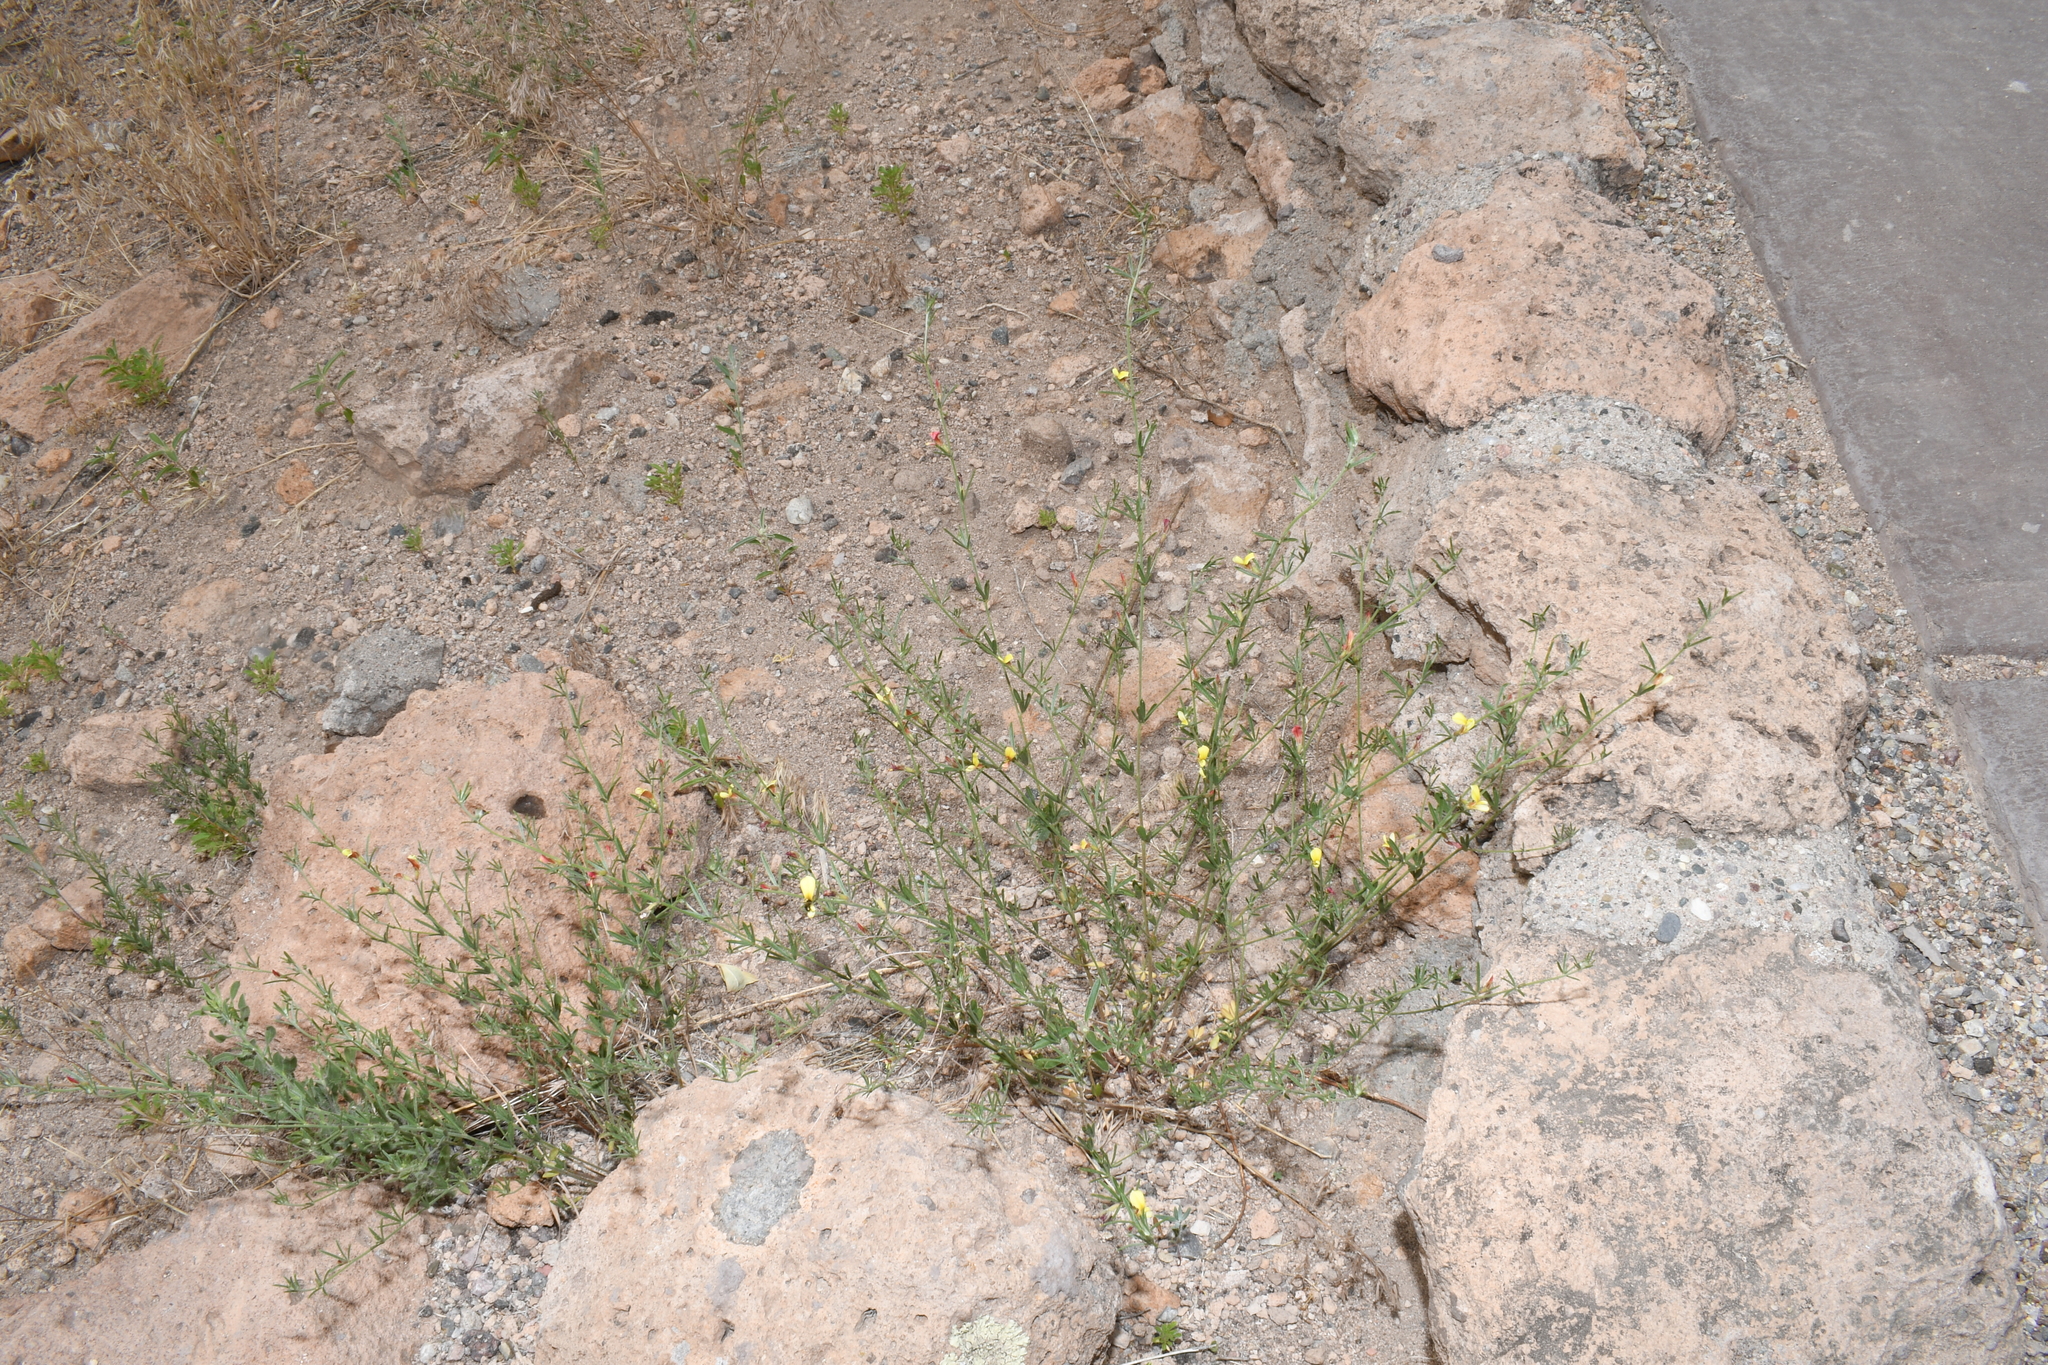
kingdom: Plantae
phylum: Tracheophyta
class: Magnoliopsida
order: Fabales
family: Fabaceae
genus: Acmispon
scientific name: Acmispon wrightii
